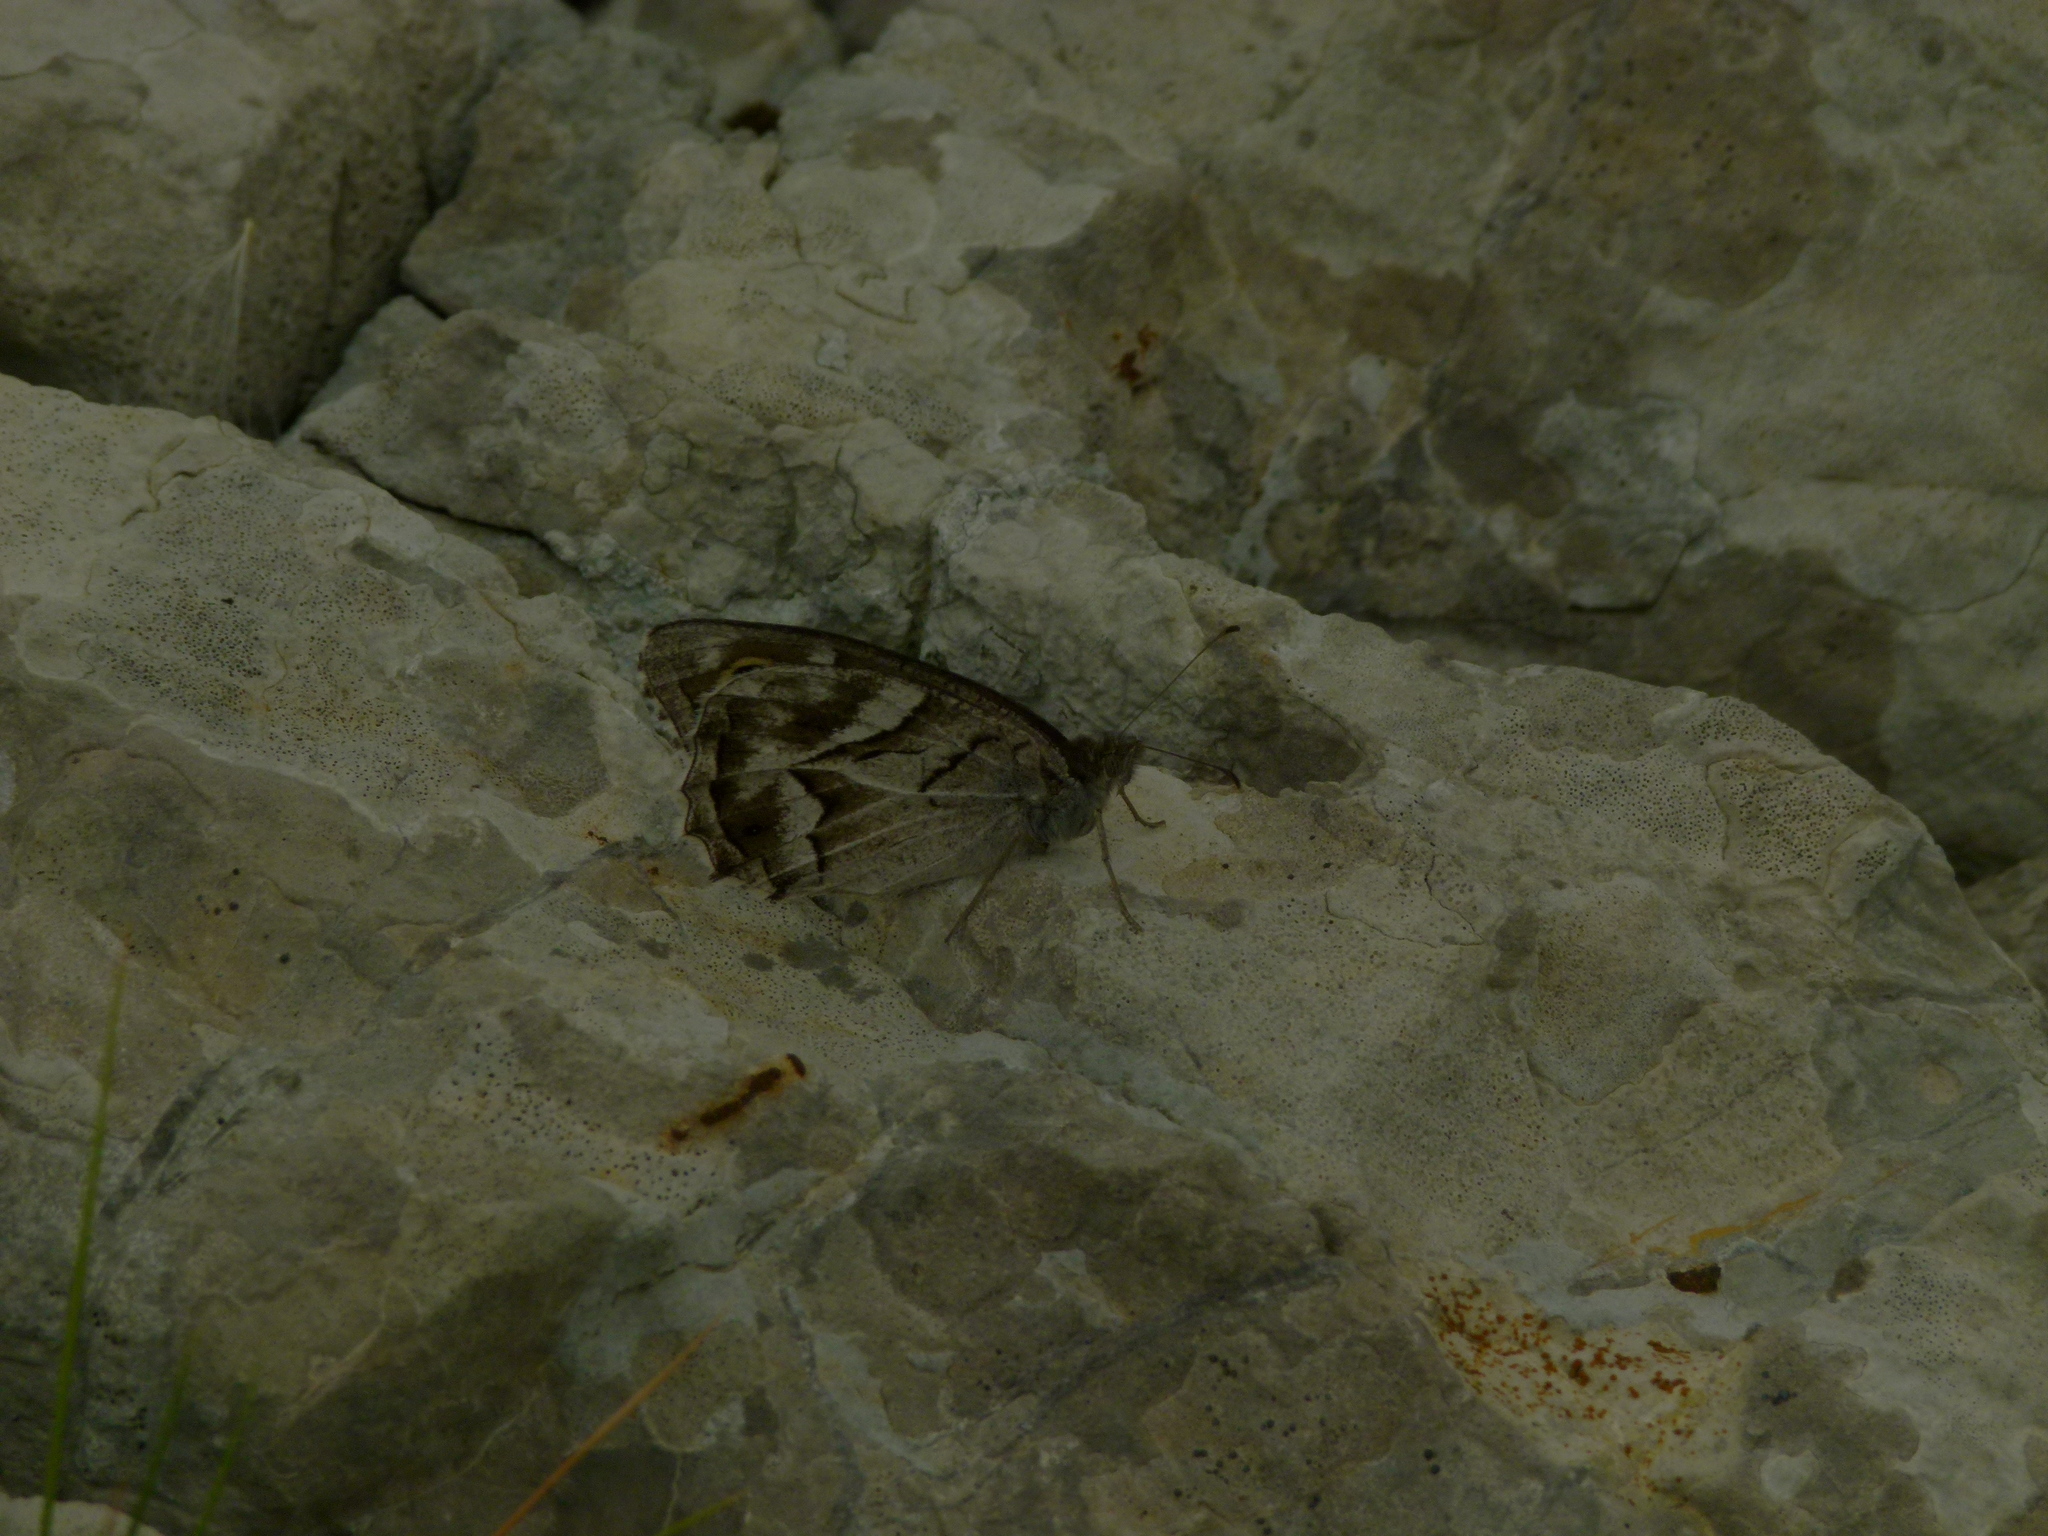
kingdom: Animalia
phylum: Arthropoda
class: Insecta
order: Lepidoptera
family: Nymphalidae
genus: Hipparchia
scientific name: Hipparchia fidia
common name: Striped grayling
